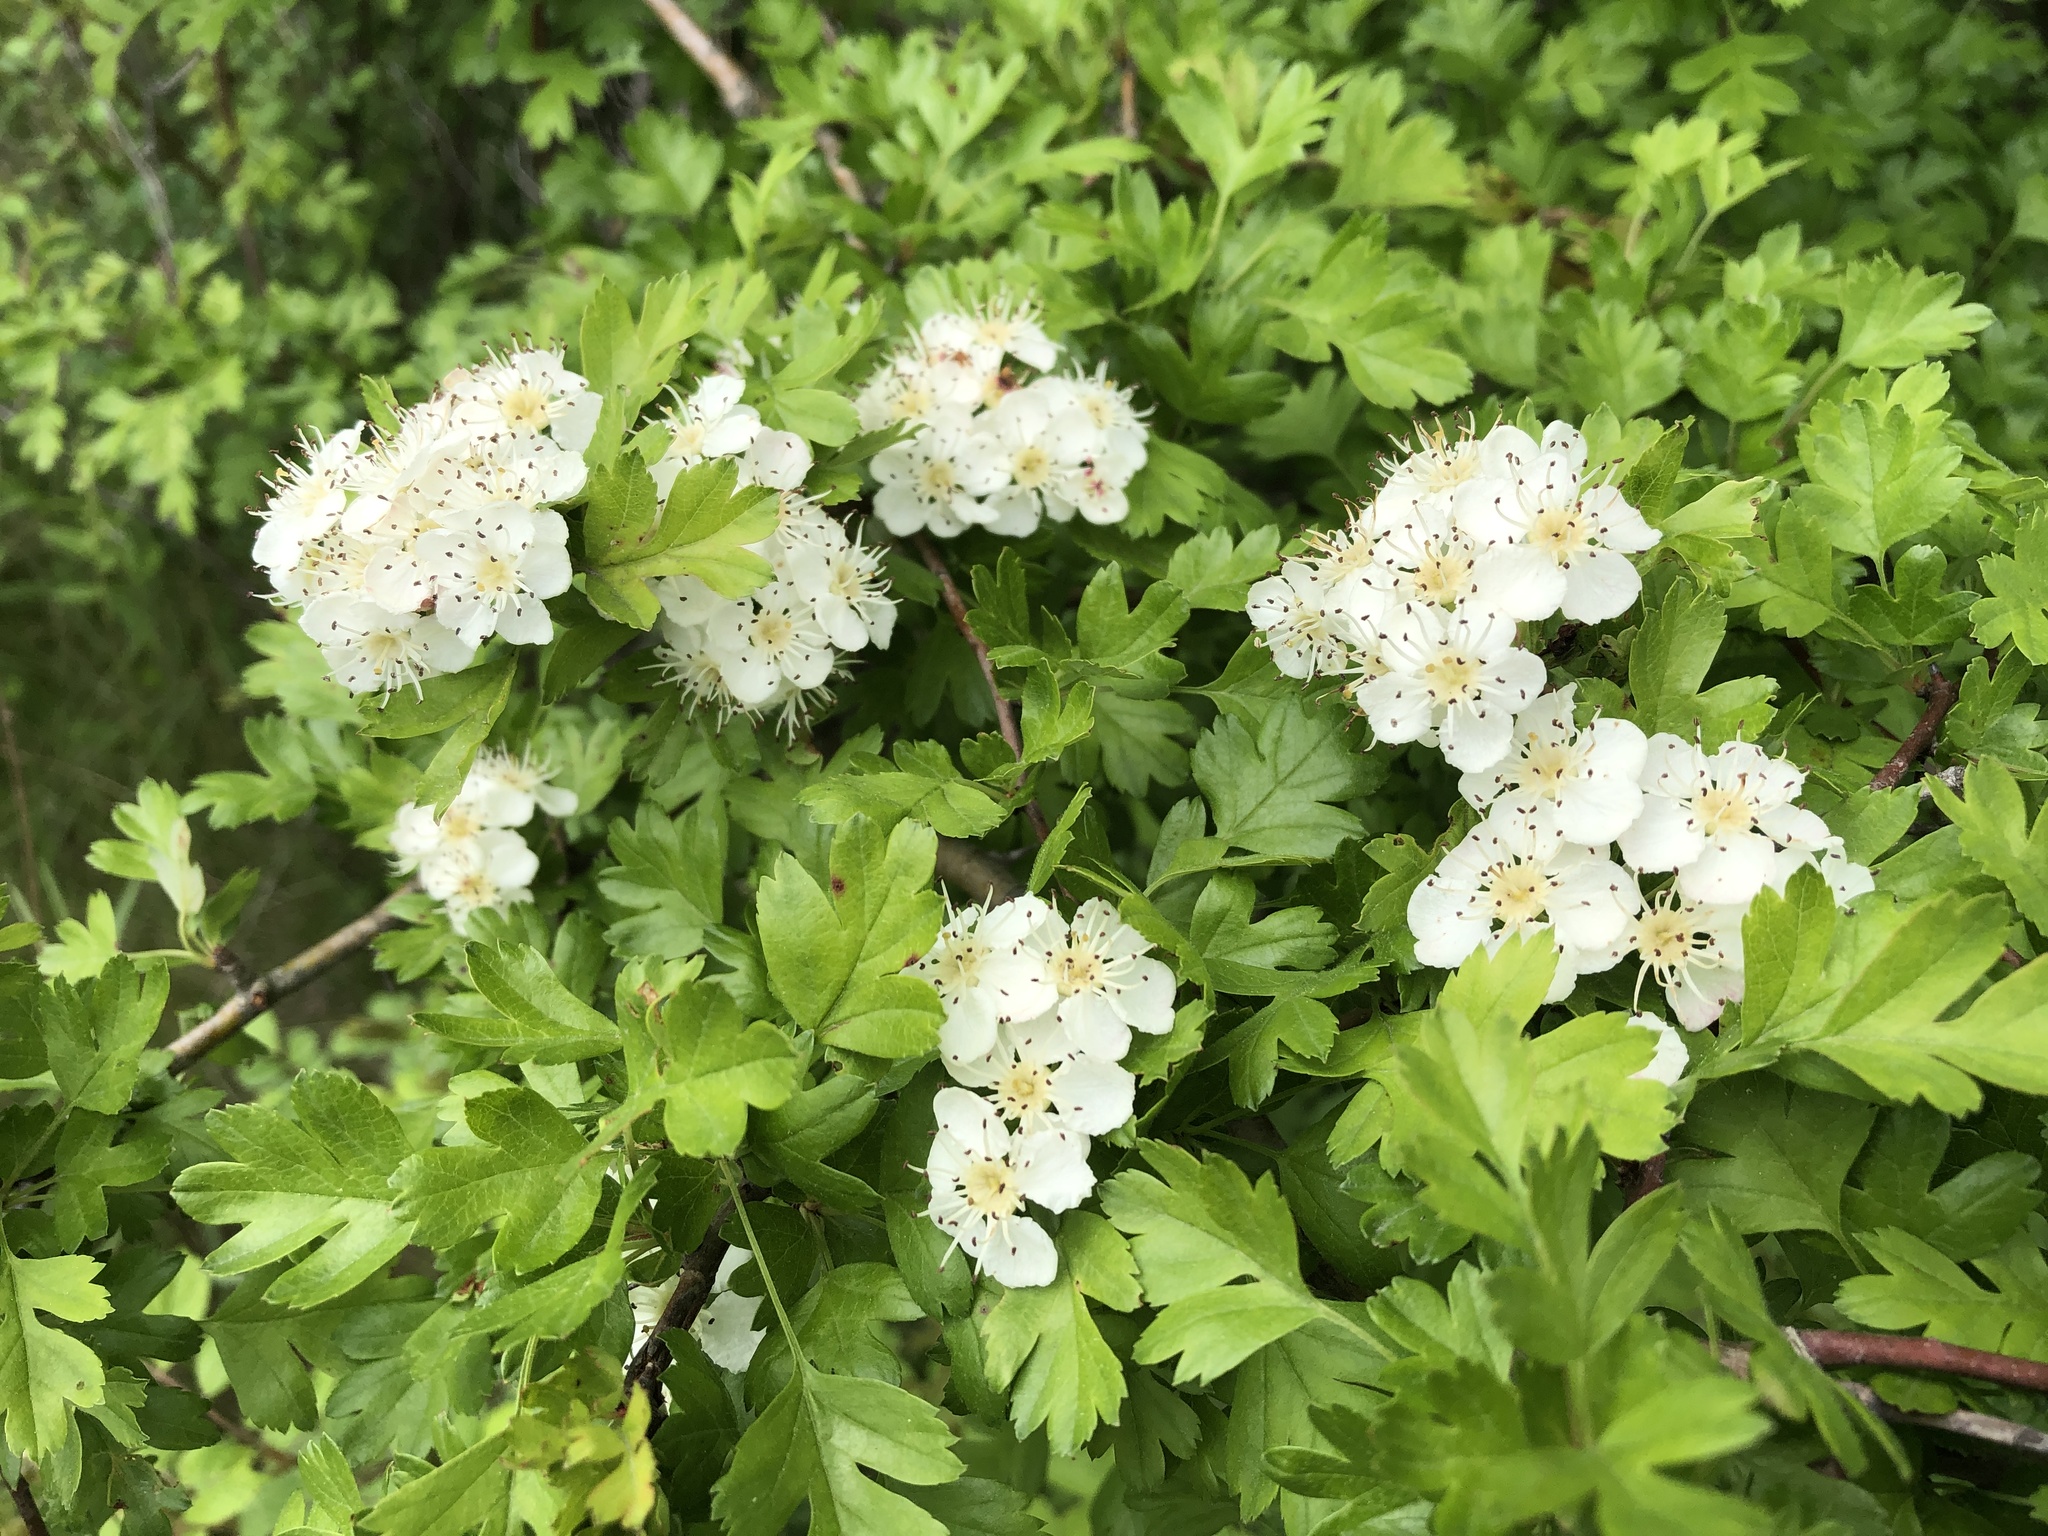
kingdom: Plantae
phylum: Tracheophyta
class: Magnoliopsida
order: Rosales
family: Rosaceae
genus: Crataegus
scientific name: Crataegus monogyna
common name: Hawthorn
